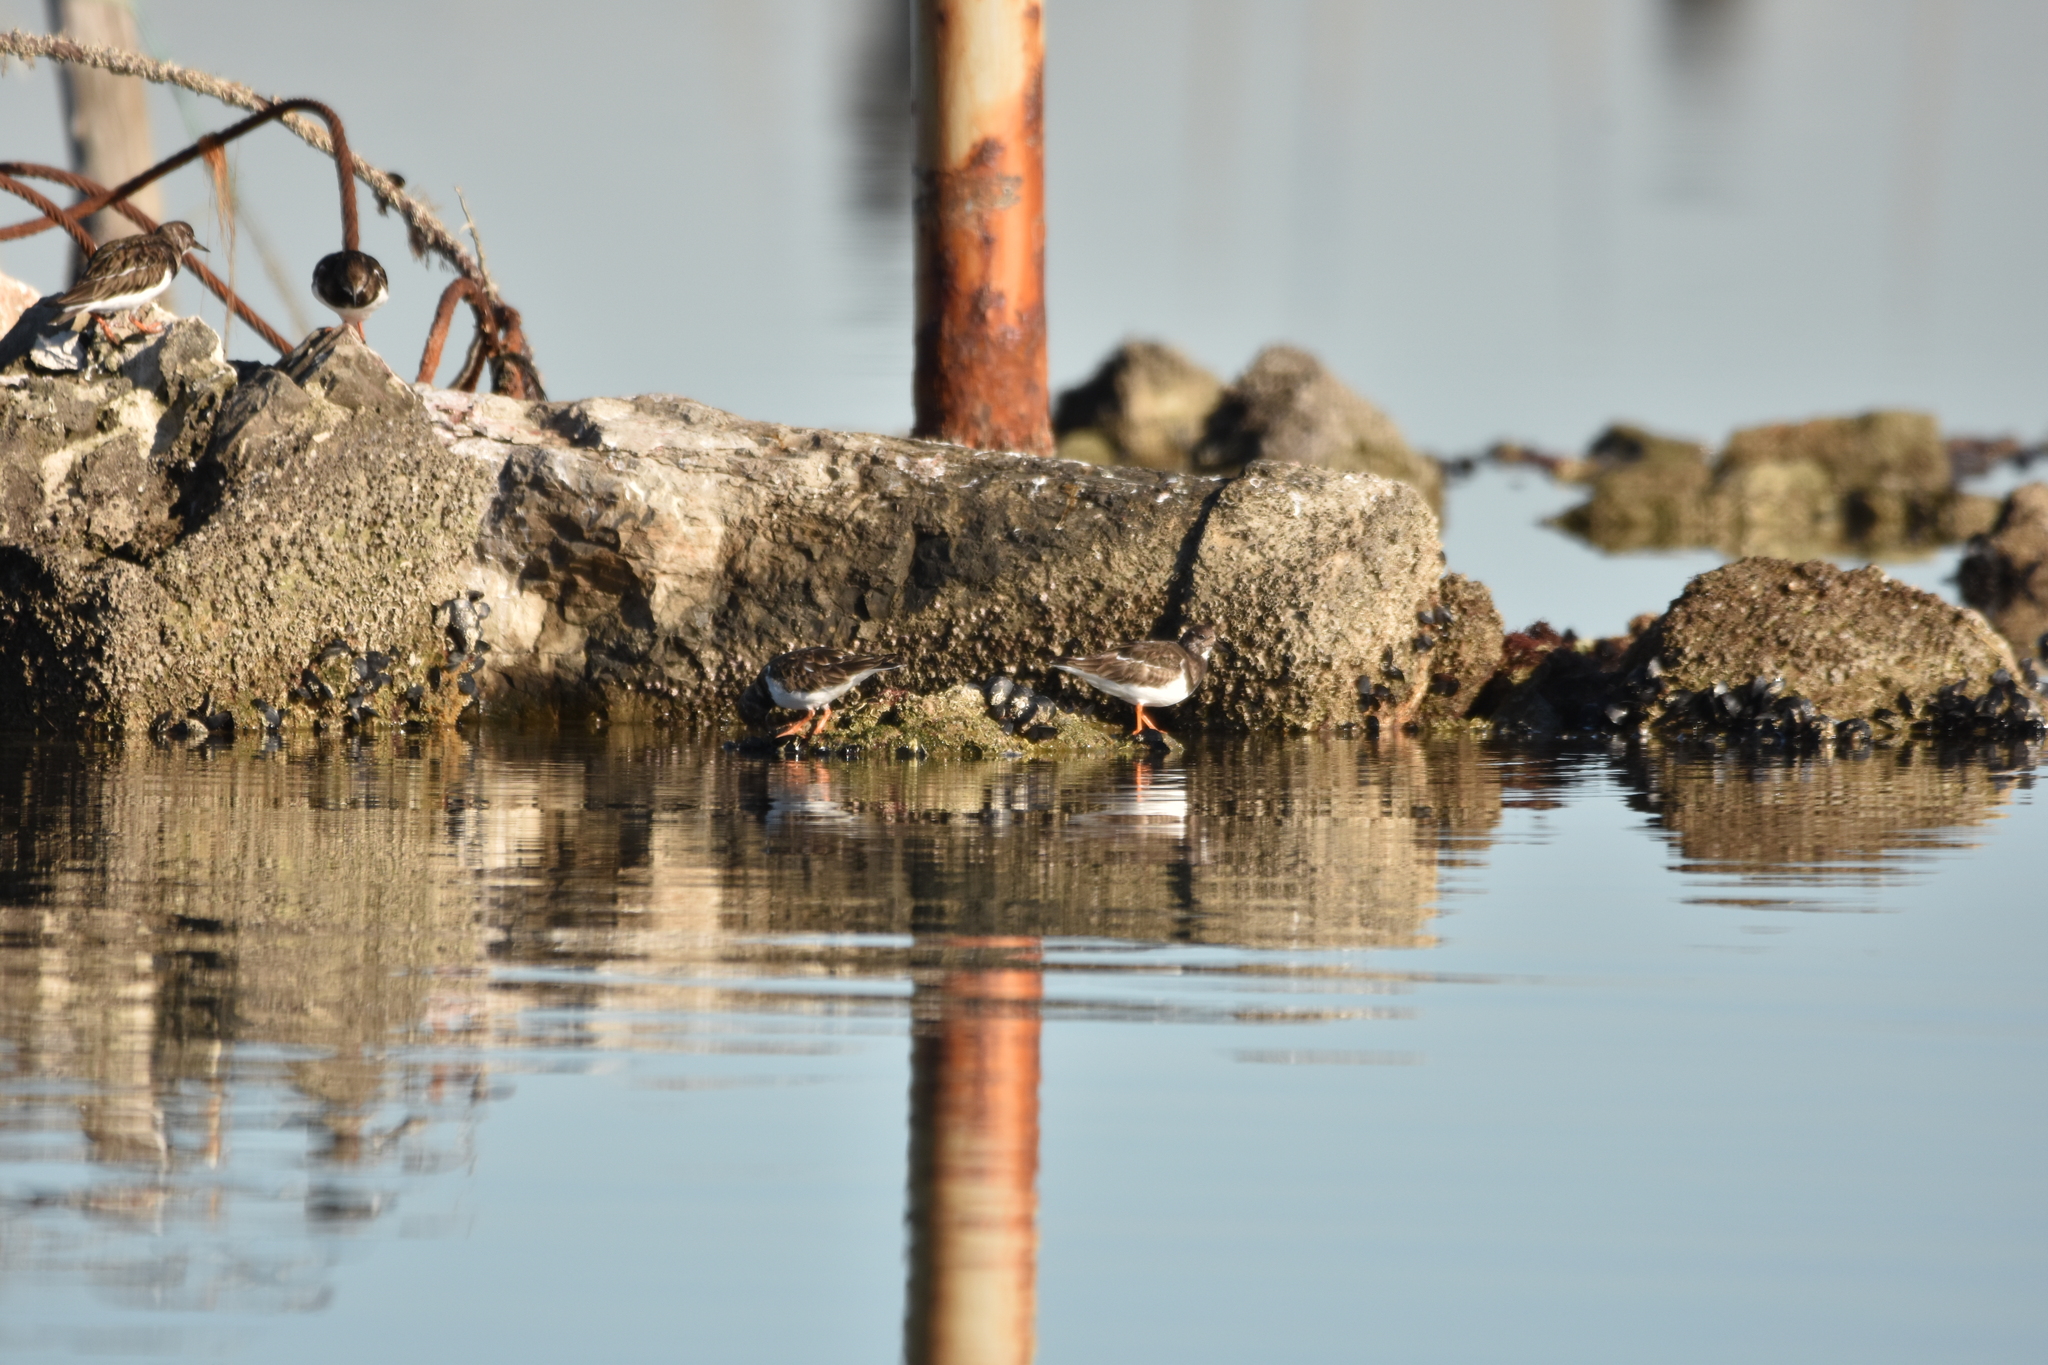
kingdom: Animalia
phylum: Chordata
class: Aves
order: Charadriiformes
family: Scolopacidae
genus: Arenaria
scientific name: Arenaria interpres
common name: Ruddy turnstone
